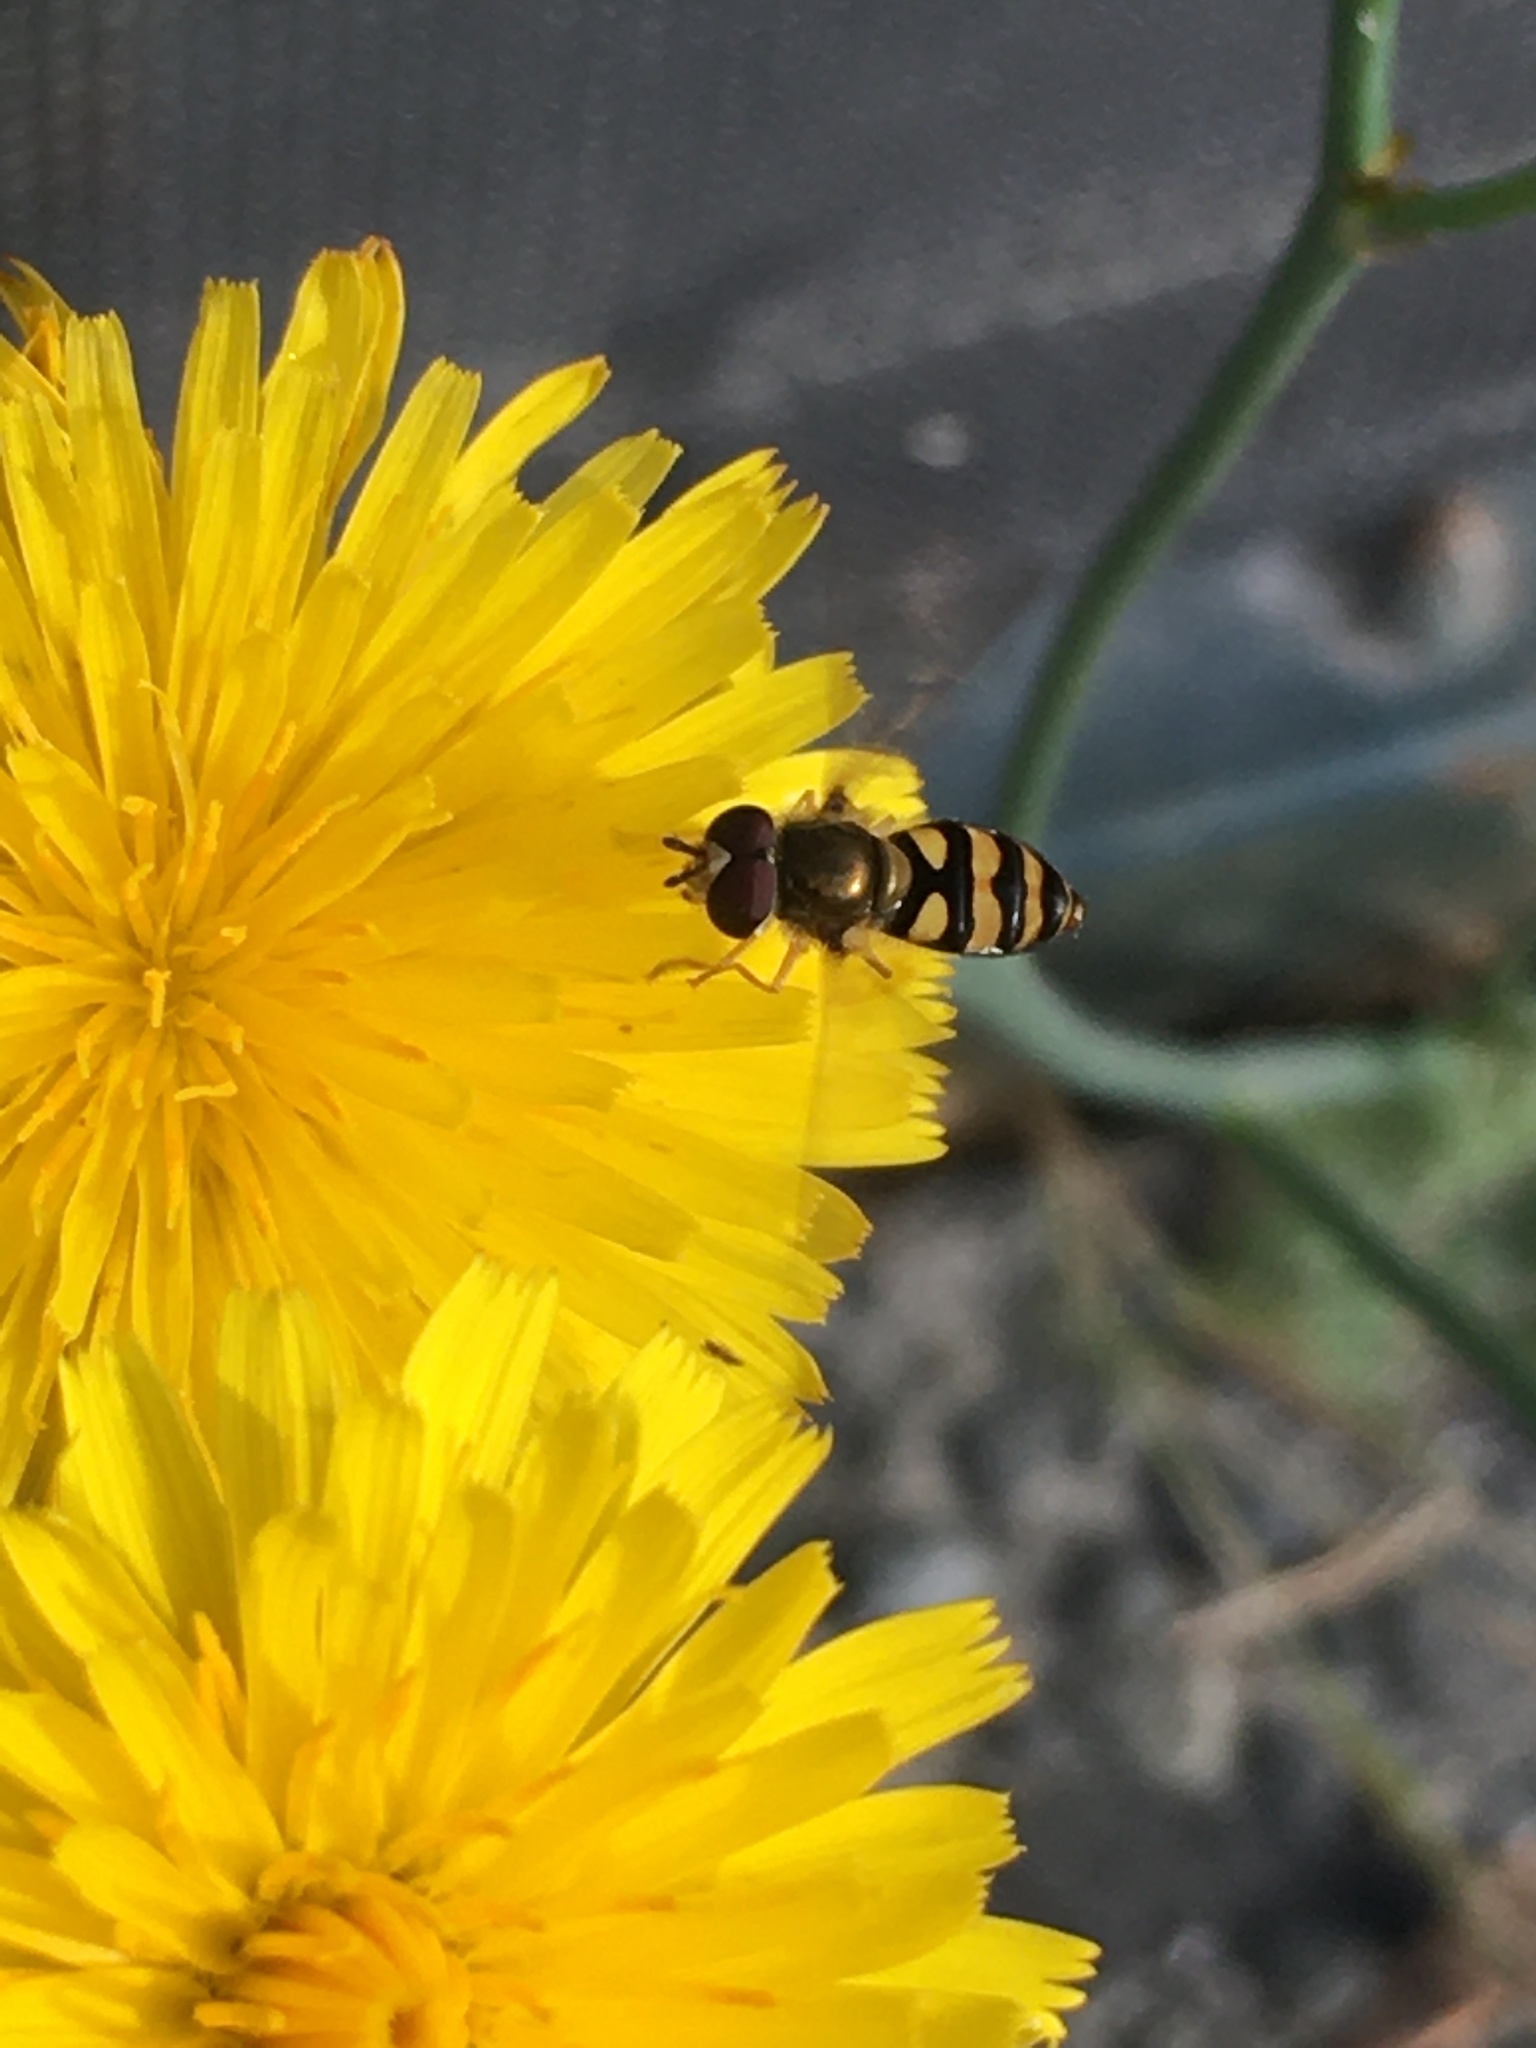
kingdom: Animalia
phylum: Arthropoda
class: Insecta
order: Diptera
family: Syrphidae
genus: Eupeodes
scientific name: Eupeodes fumipennis
